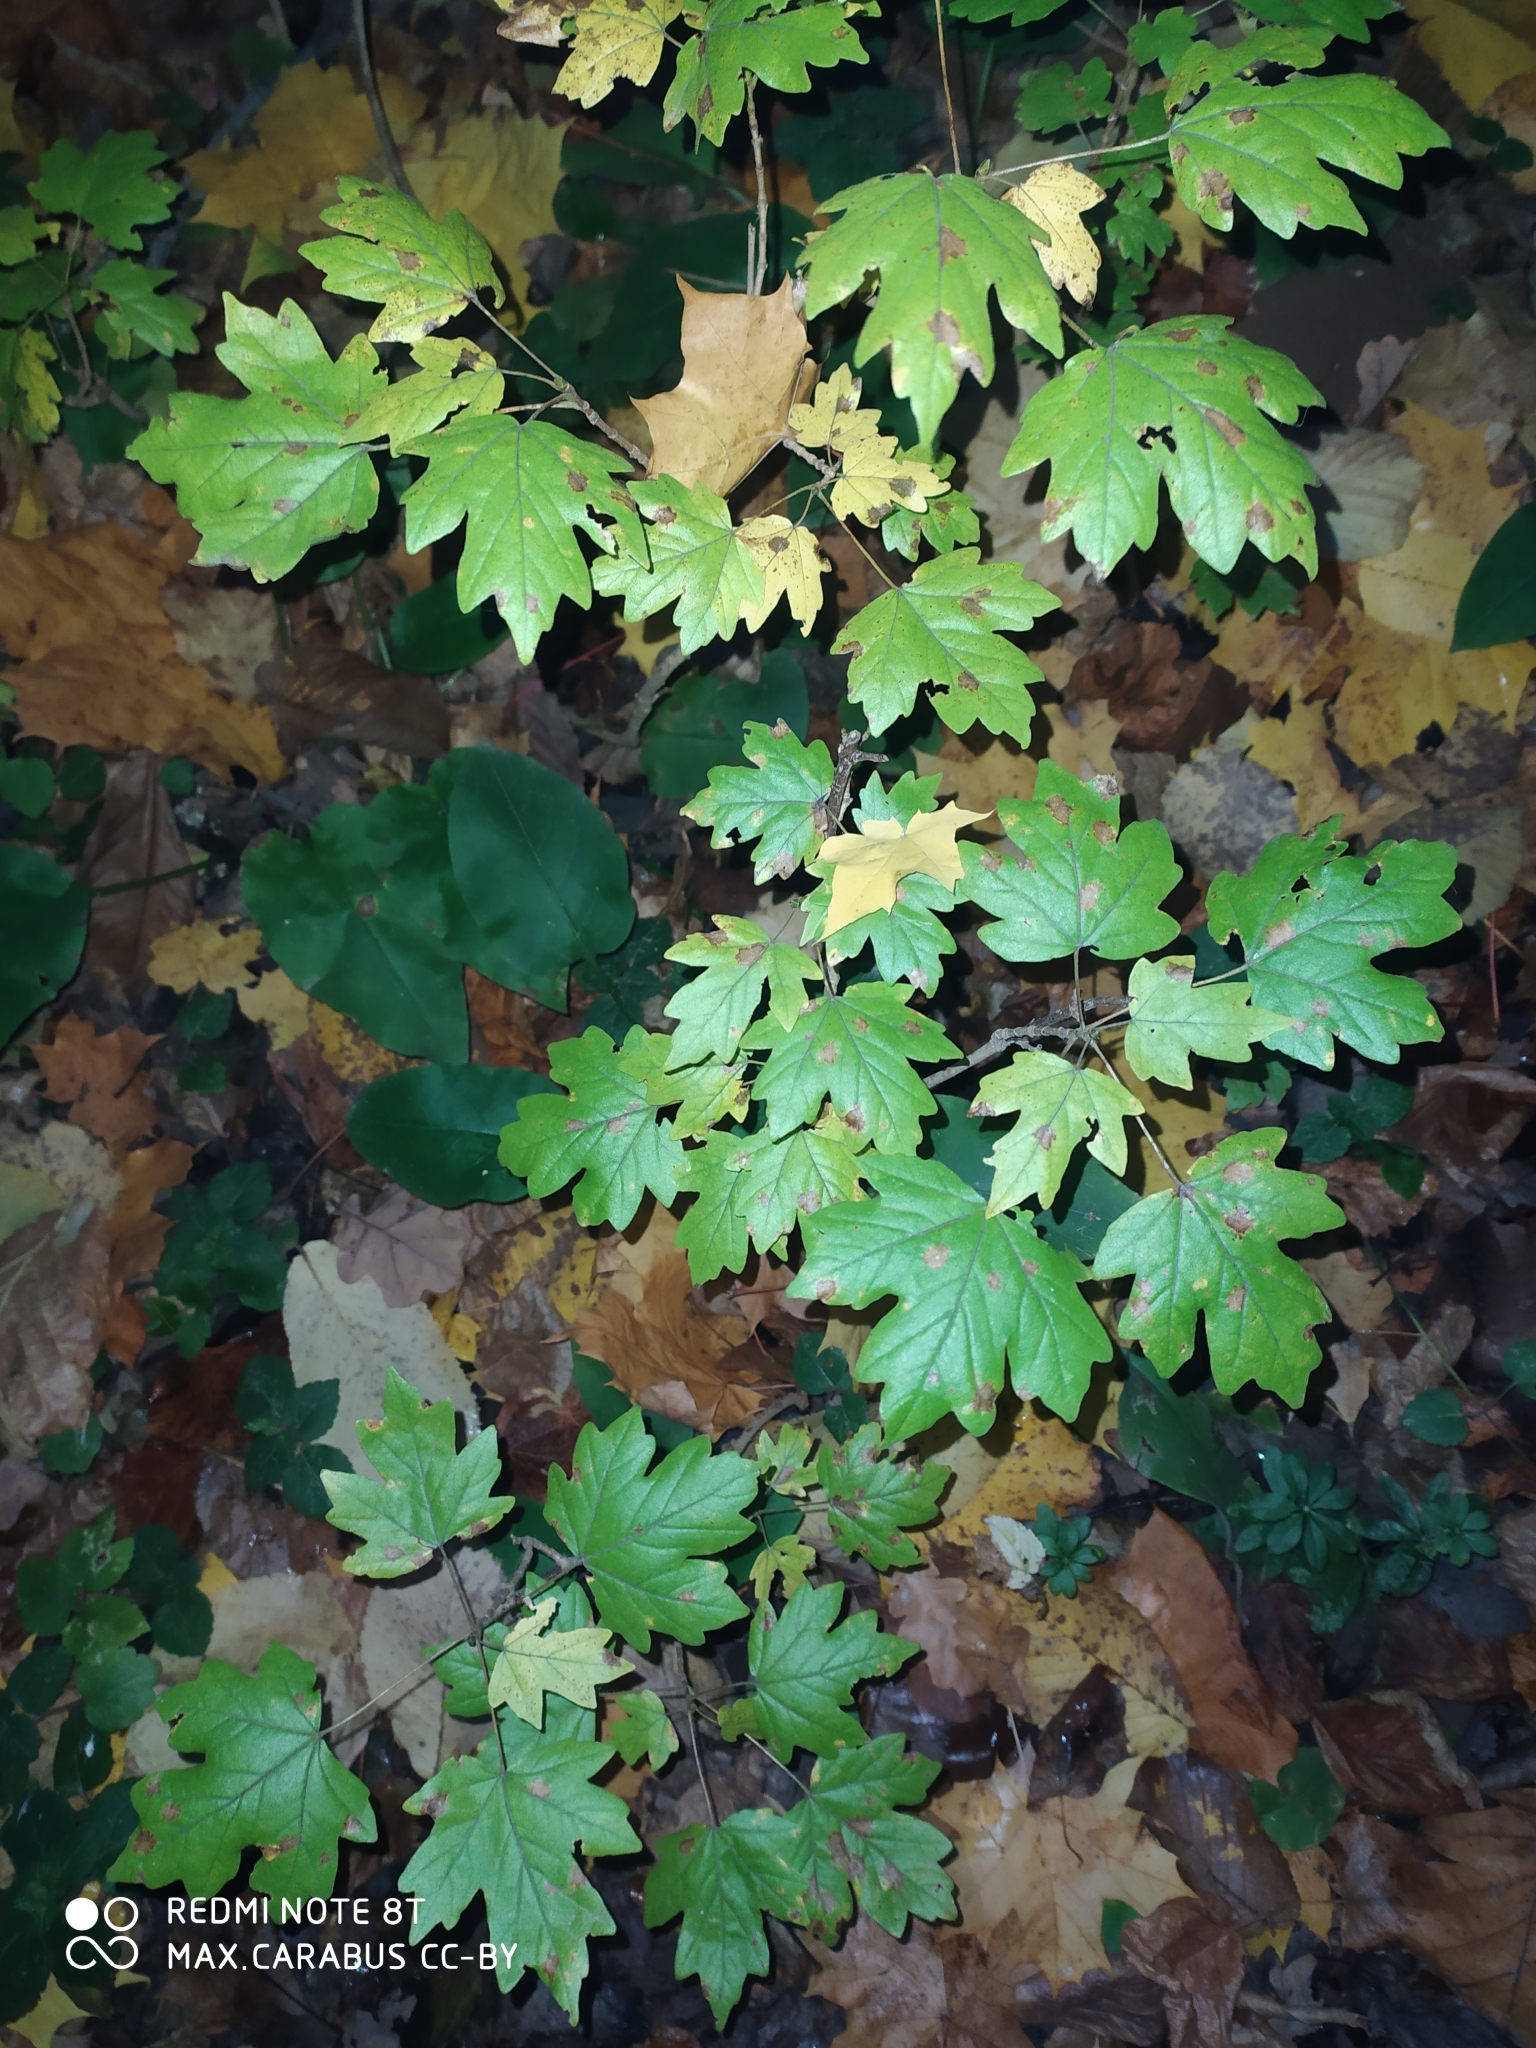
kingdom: Plantae
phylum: Tracheophyta
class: Magnoliopsida
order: Sapindales
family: Sapindaceae
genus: Acer
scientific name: Acer campestre
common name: Field maple
